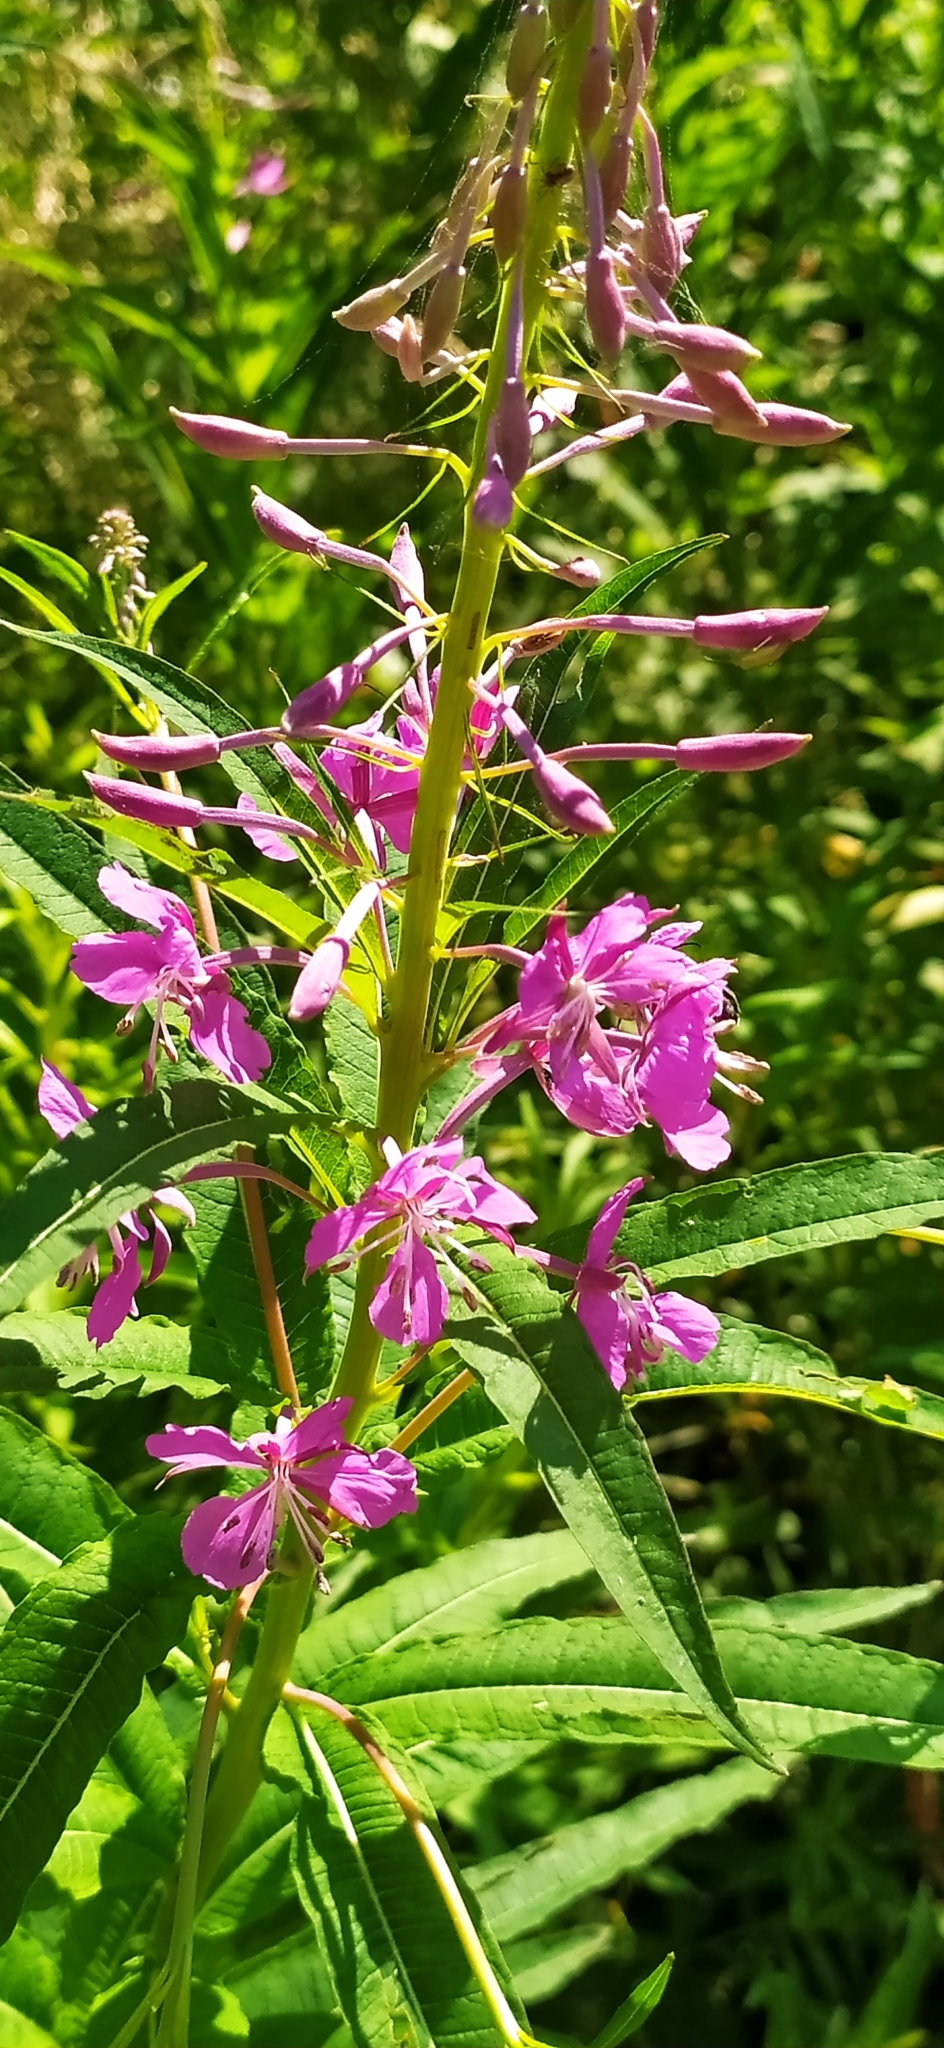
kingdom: Plantae
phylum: Tracheophyta
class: Magnoliopsida
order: Myrtales
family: Onagraceae
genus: Chamaenerion
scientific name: Chamaenerion angustifolium
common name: Fireweed
